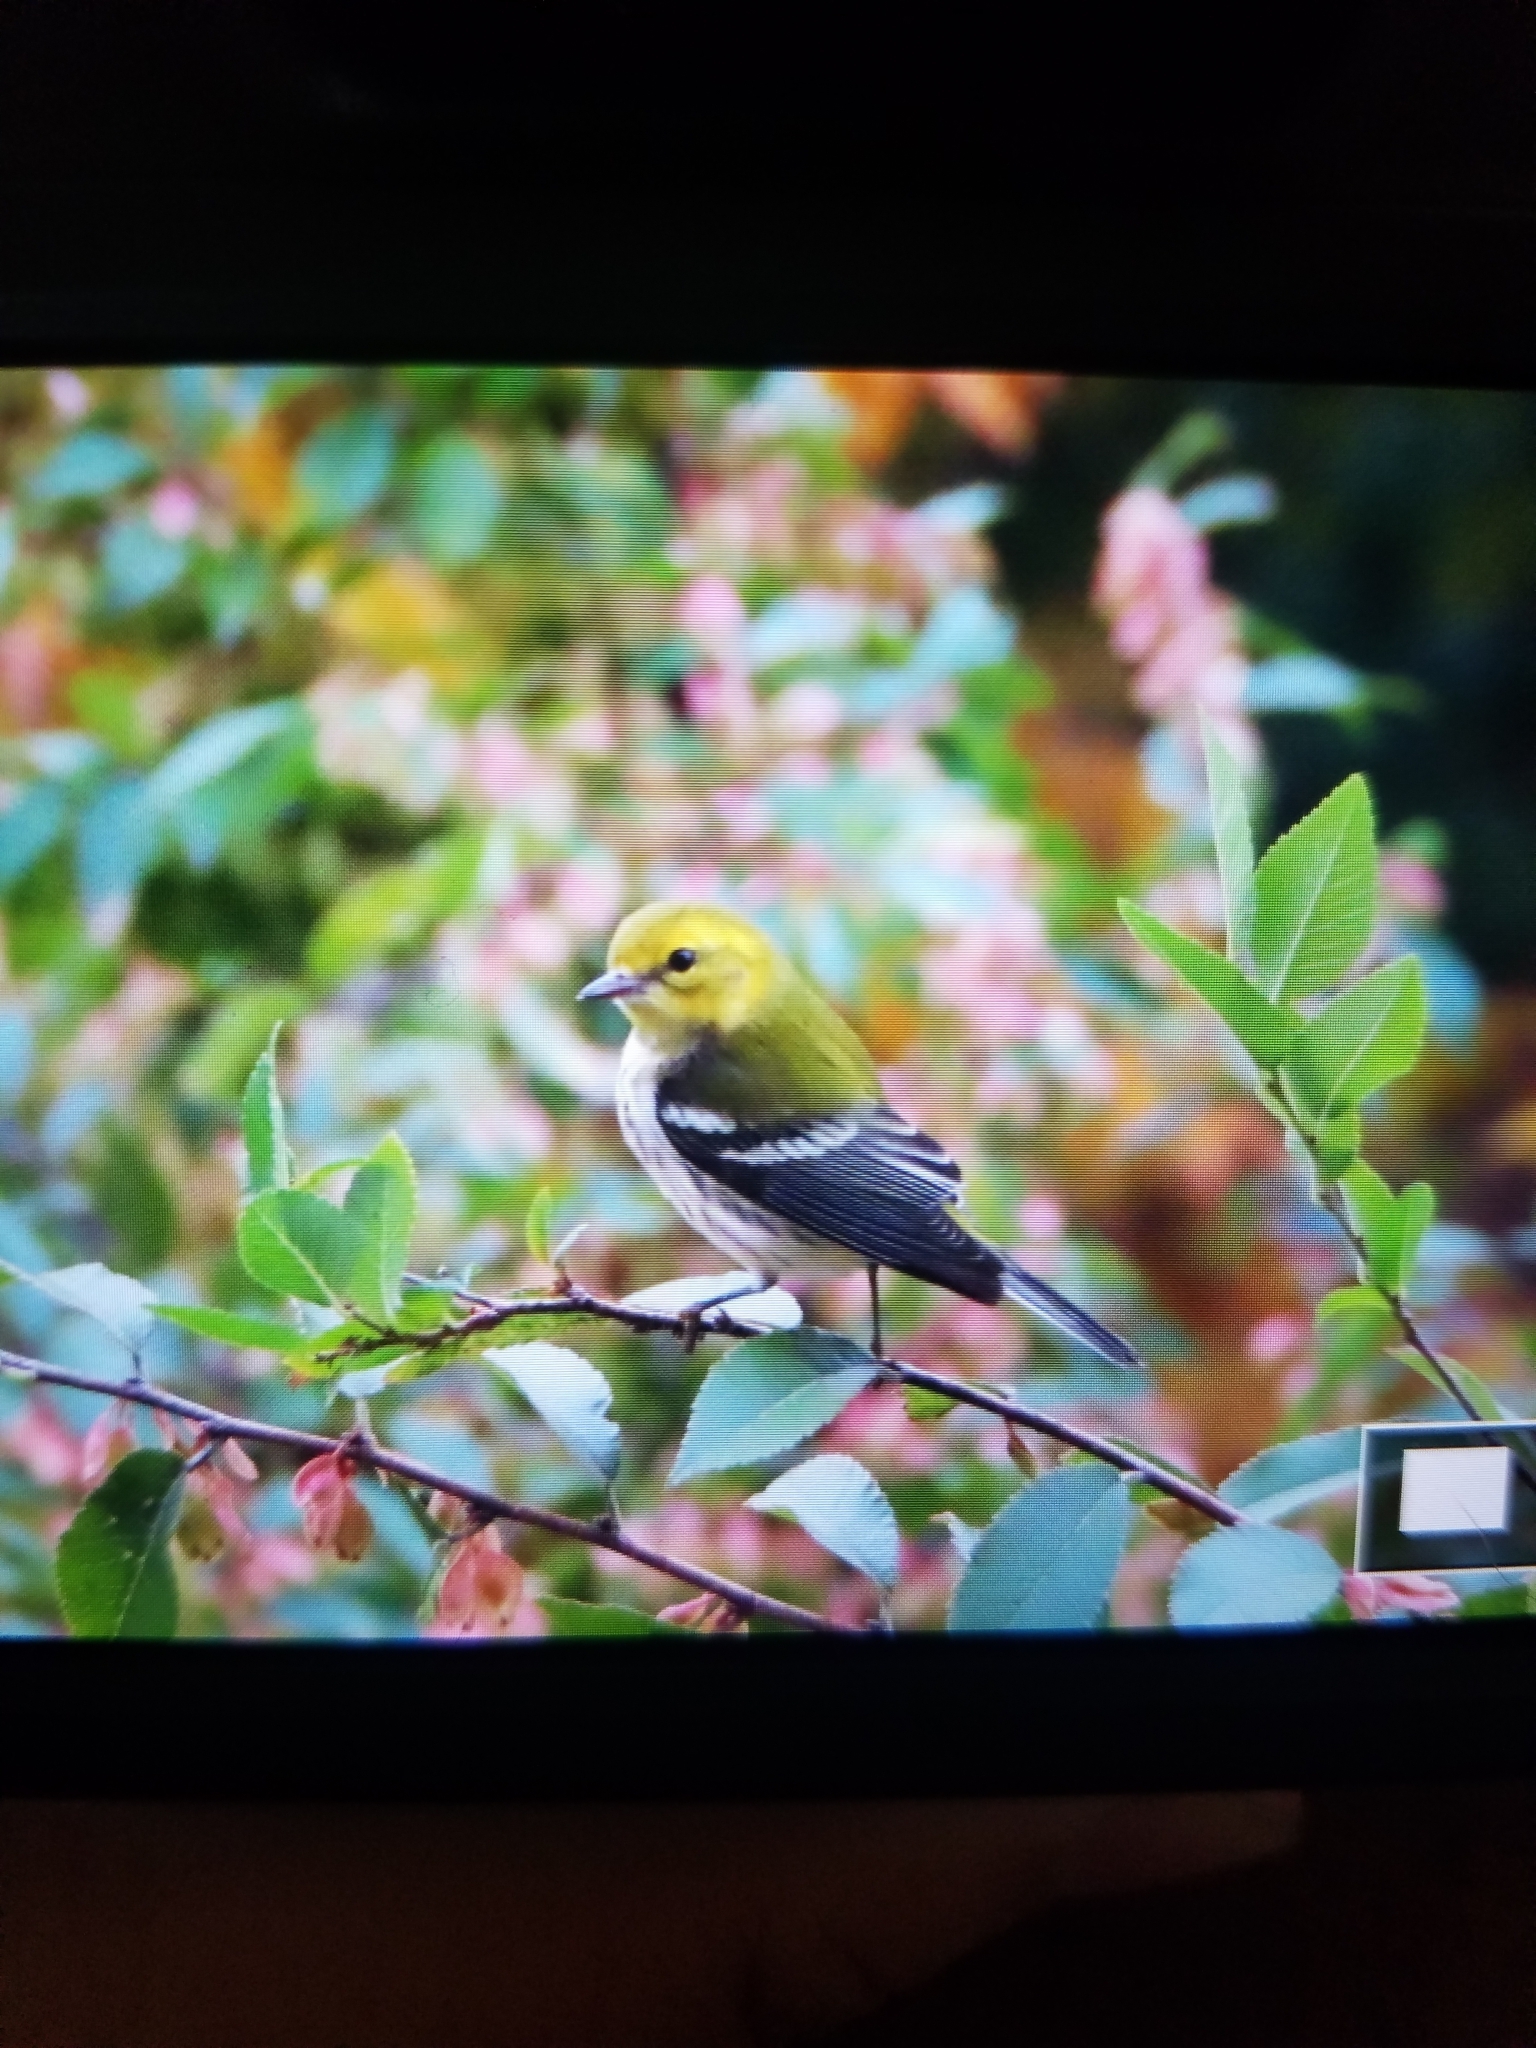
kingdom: Animalia
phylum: Chordata
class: Aves
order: Passeriformes
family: Parulidae
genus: Setophaga
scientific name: Setophaga virens
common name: Black-throated green warbler
